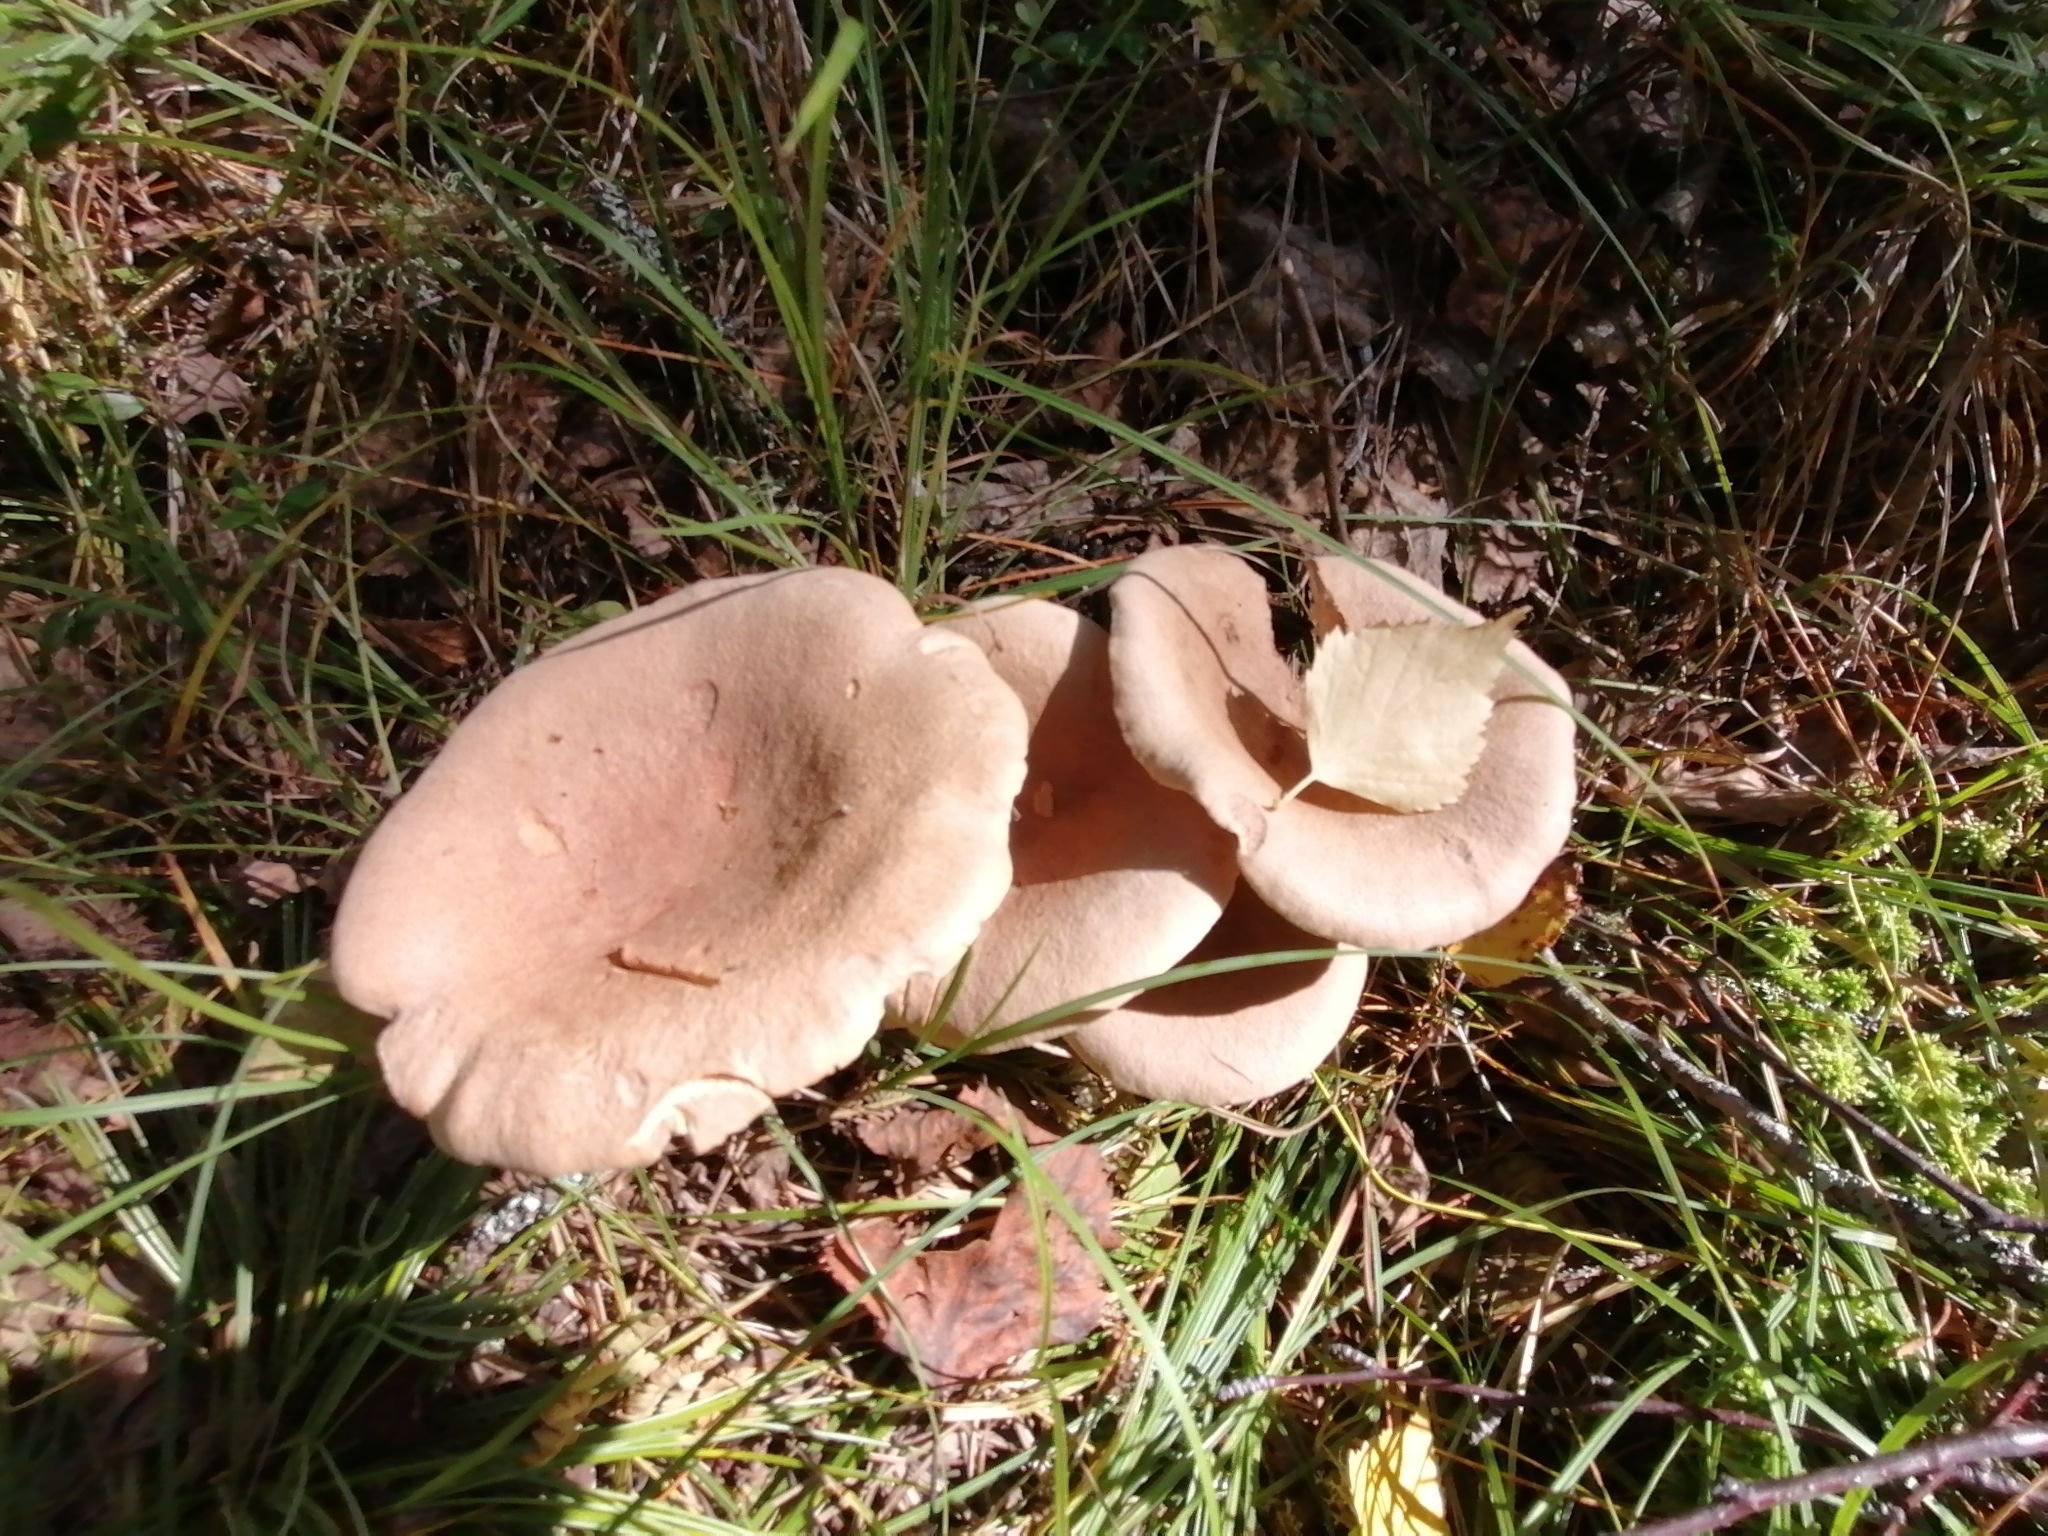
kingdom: Fungi
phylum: Basidiomycota
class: Agaricomycetes
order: Russulales
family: Russulaceae
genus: Lactarius
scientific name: Lactarius helvus
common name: Fenugreek milkcap
